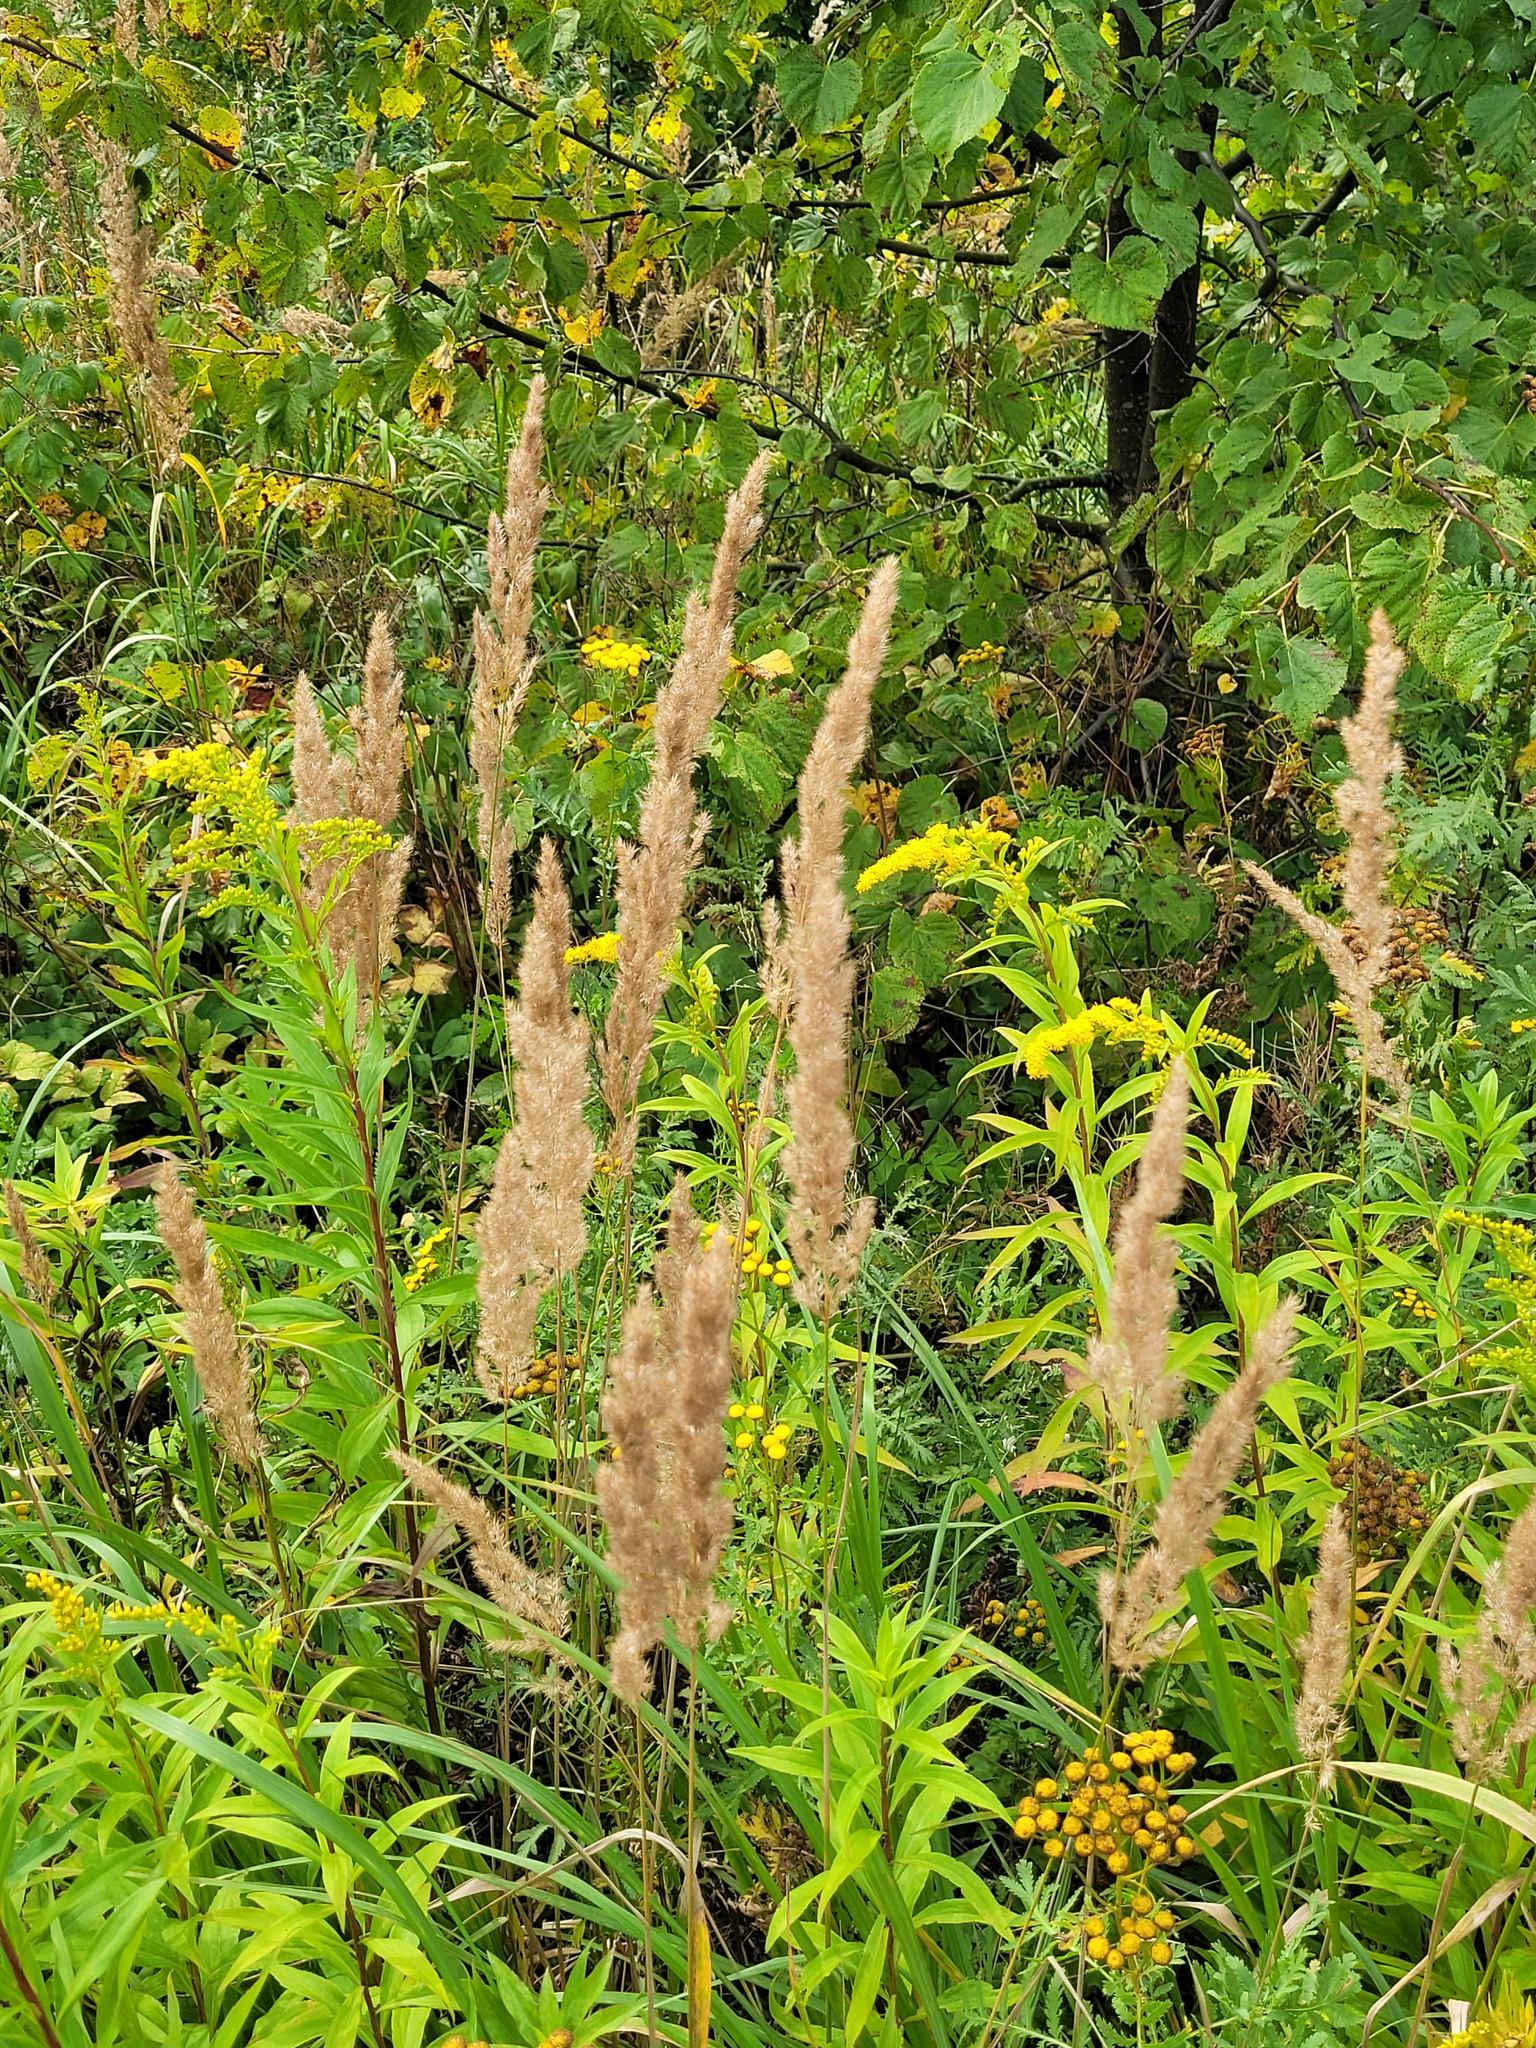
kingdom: Plantae
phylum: Tracheophyta
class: Liliopsida
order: Poales
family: Poaceae
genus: Calamagrostis
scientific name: Calamagrostis epigejos
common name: Wood small-reed
